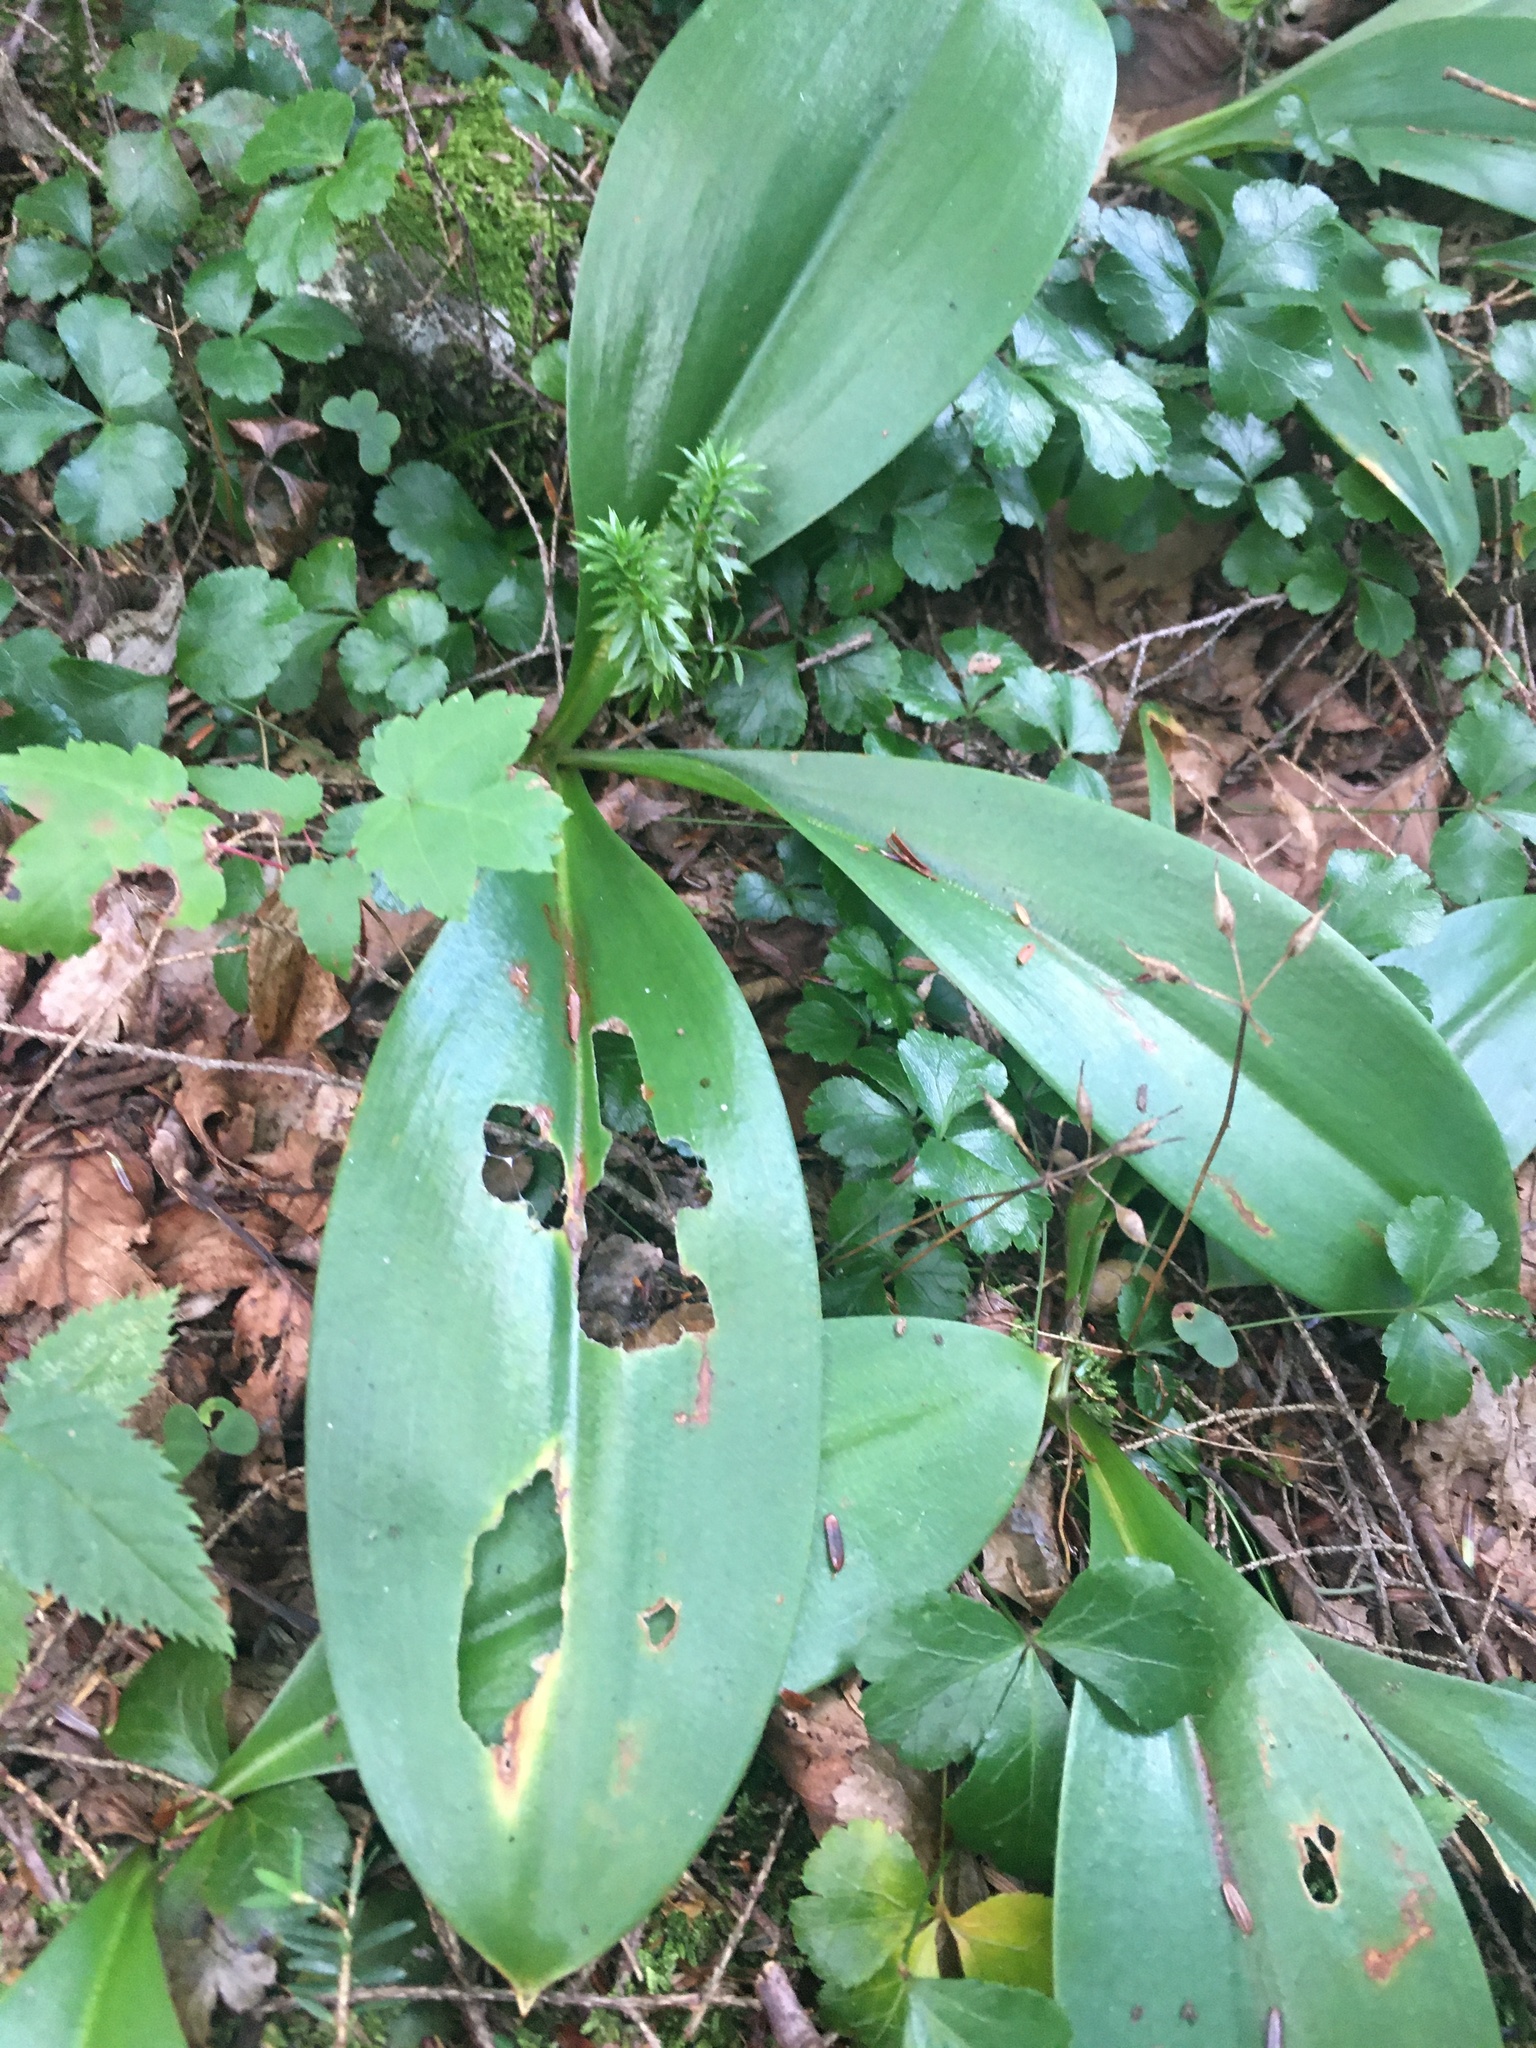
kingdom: Plantae
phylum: Tracheophyta
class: Liliopsida
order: Liliales
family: Liliaceae
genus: Clintonia
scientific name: Clintonia borealis
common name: Yellow clintonia
